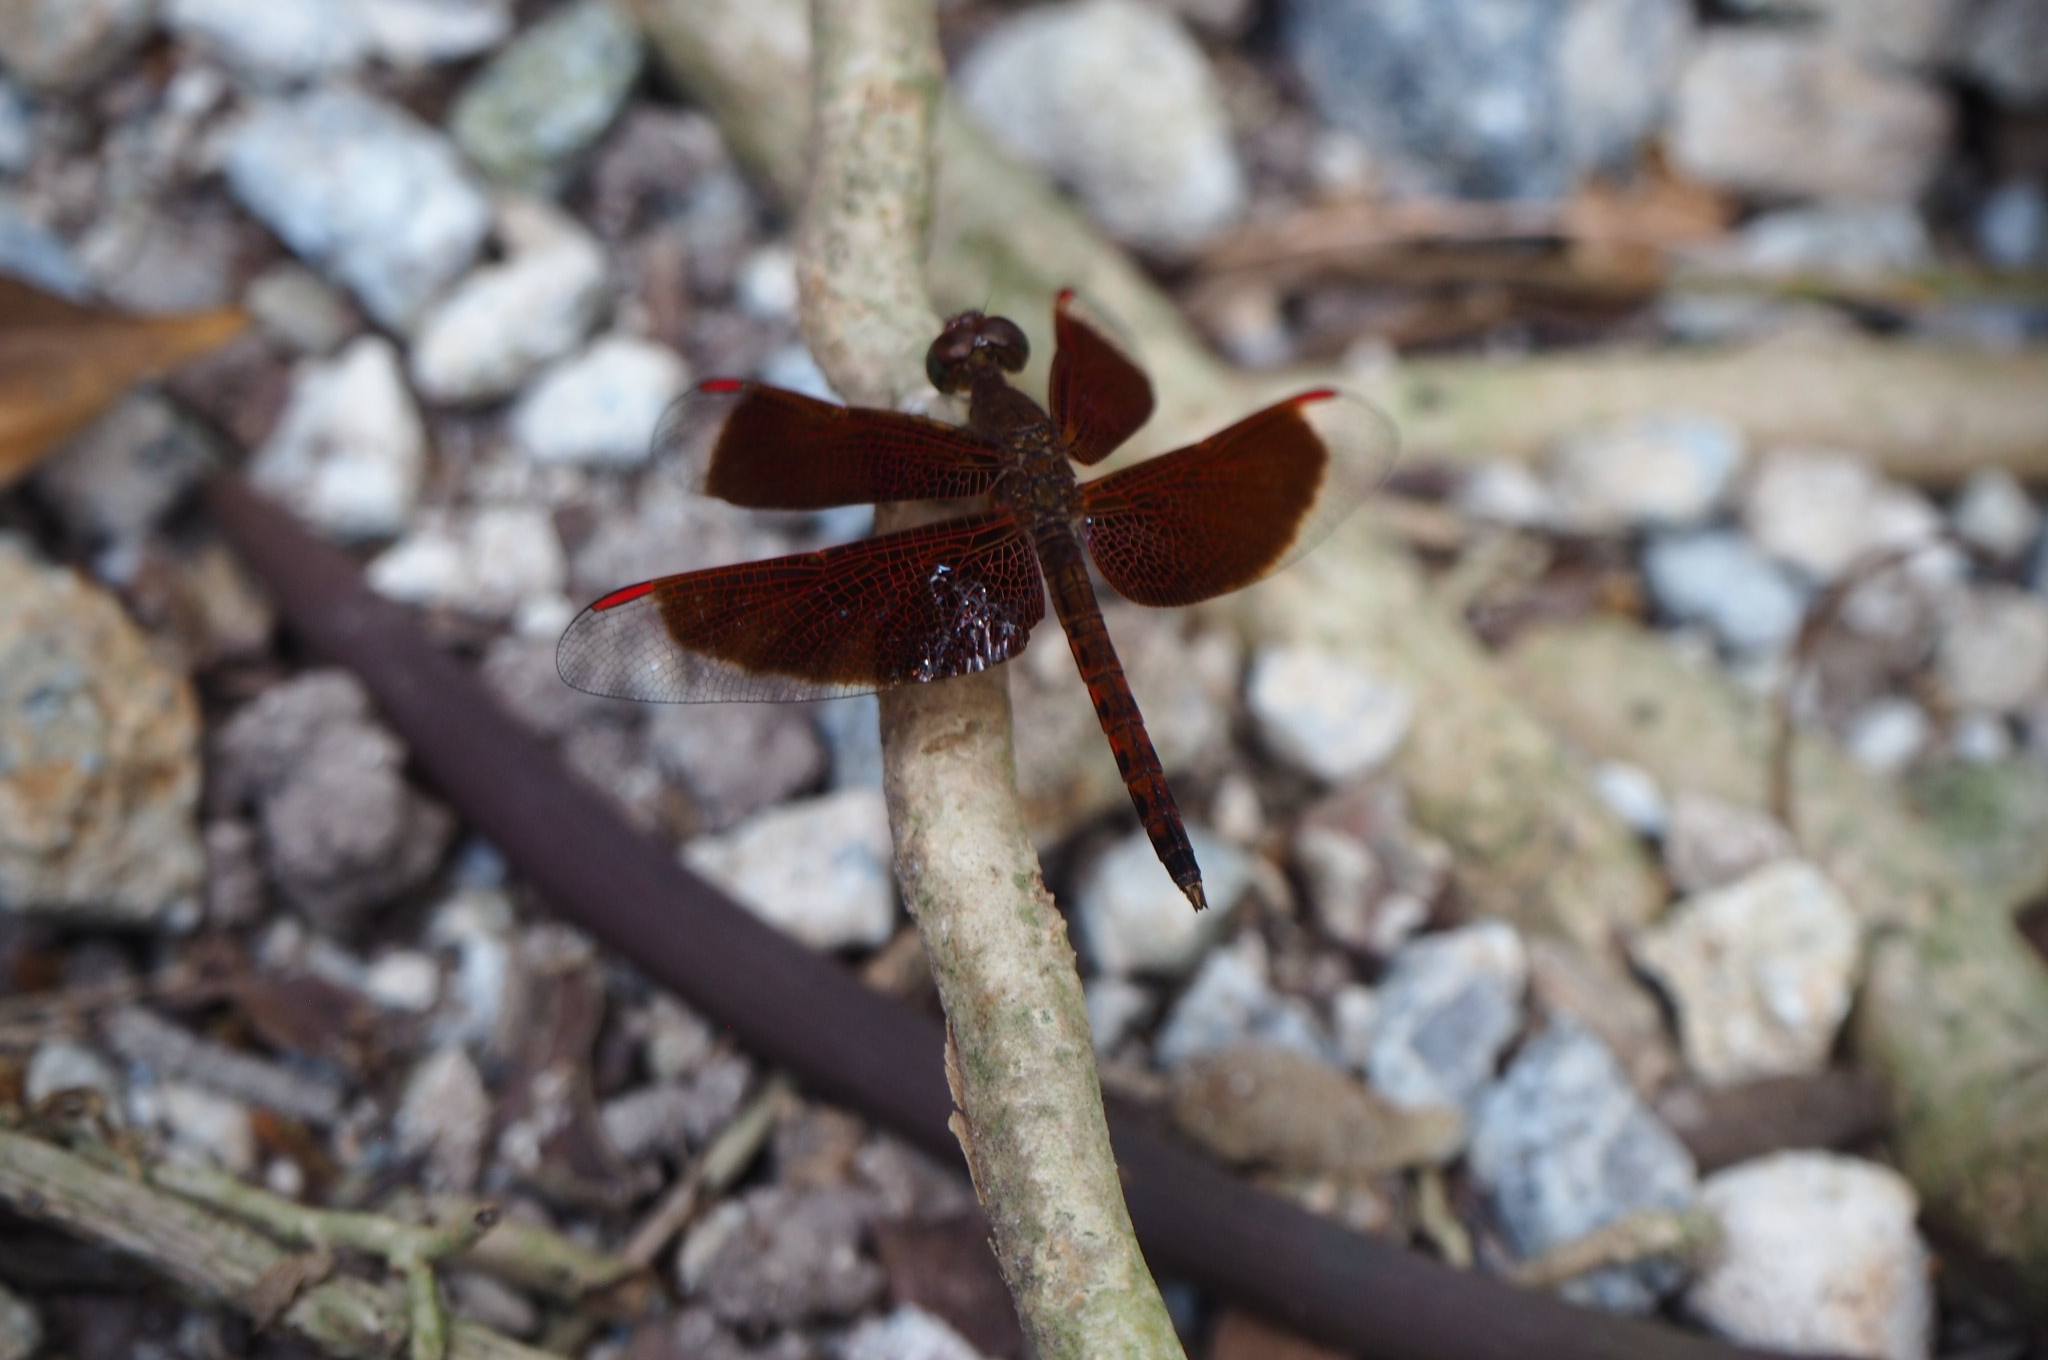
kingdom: Animalia
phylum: Arthropoda
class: Insecta
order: Odonata
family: Libellulidae
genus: Neurothemis
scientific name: Neurothemis fluctuans
